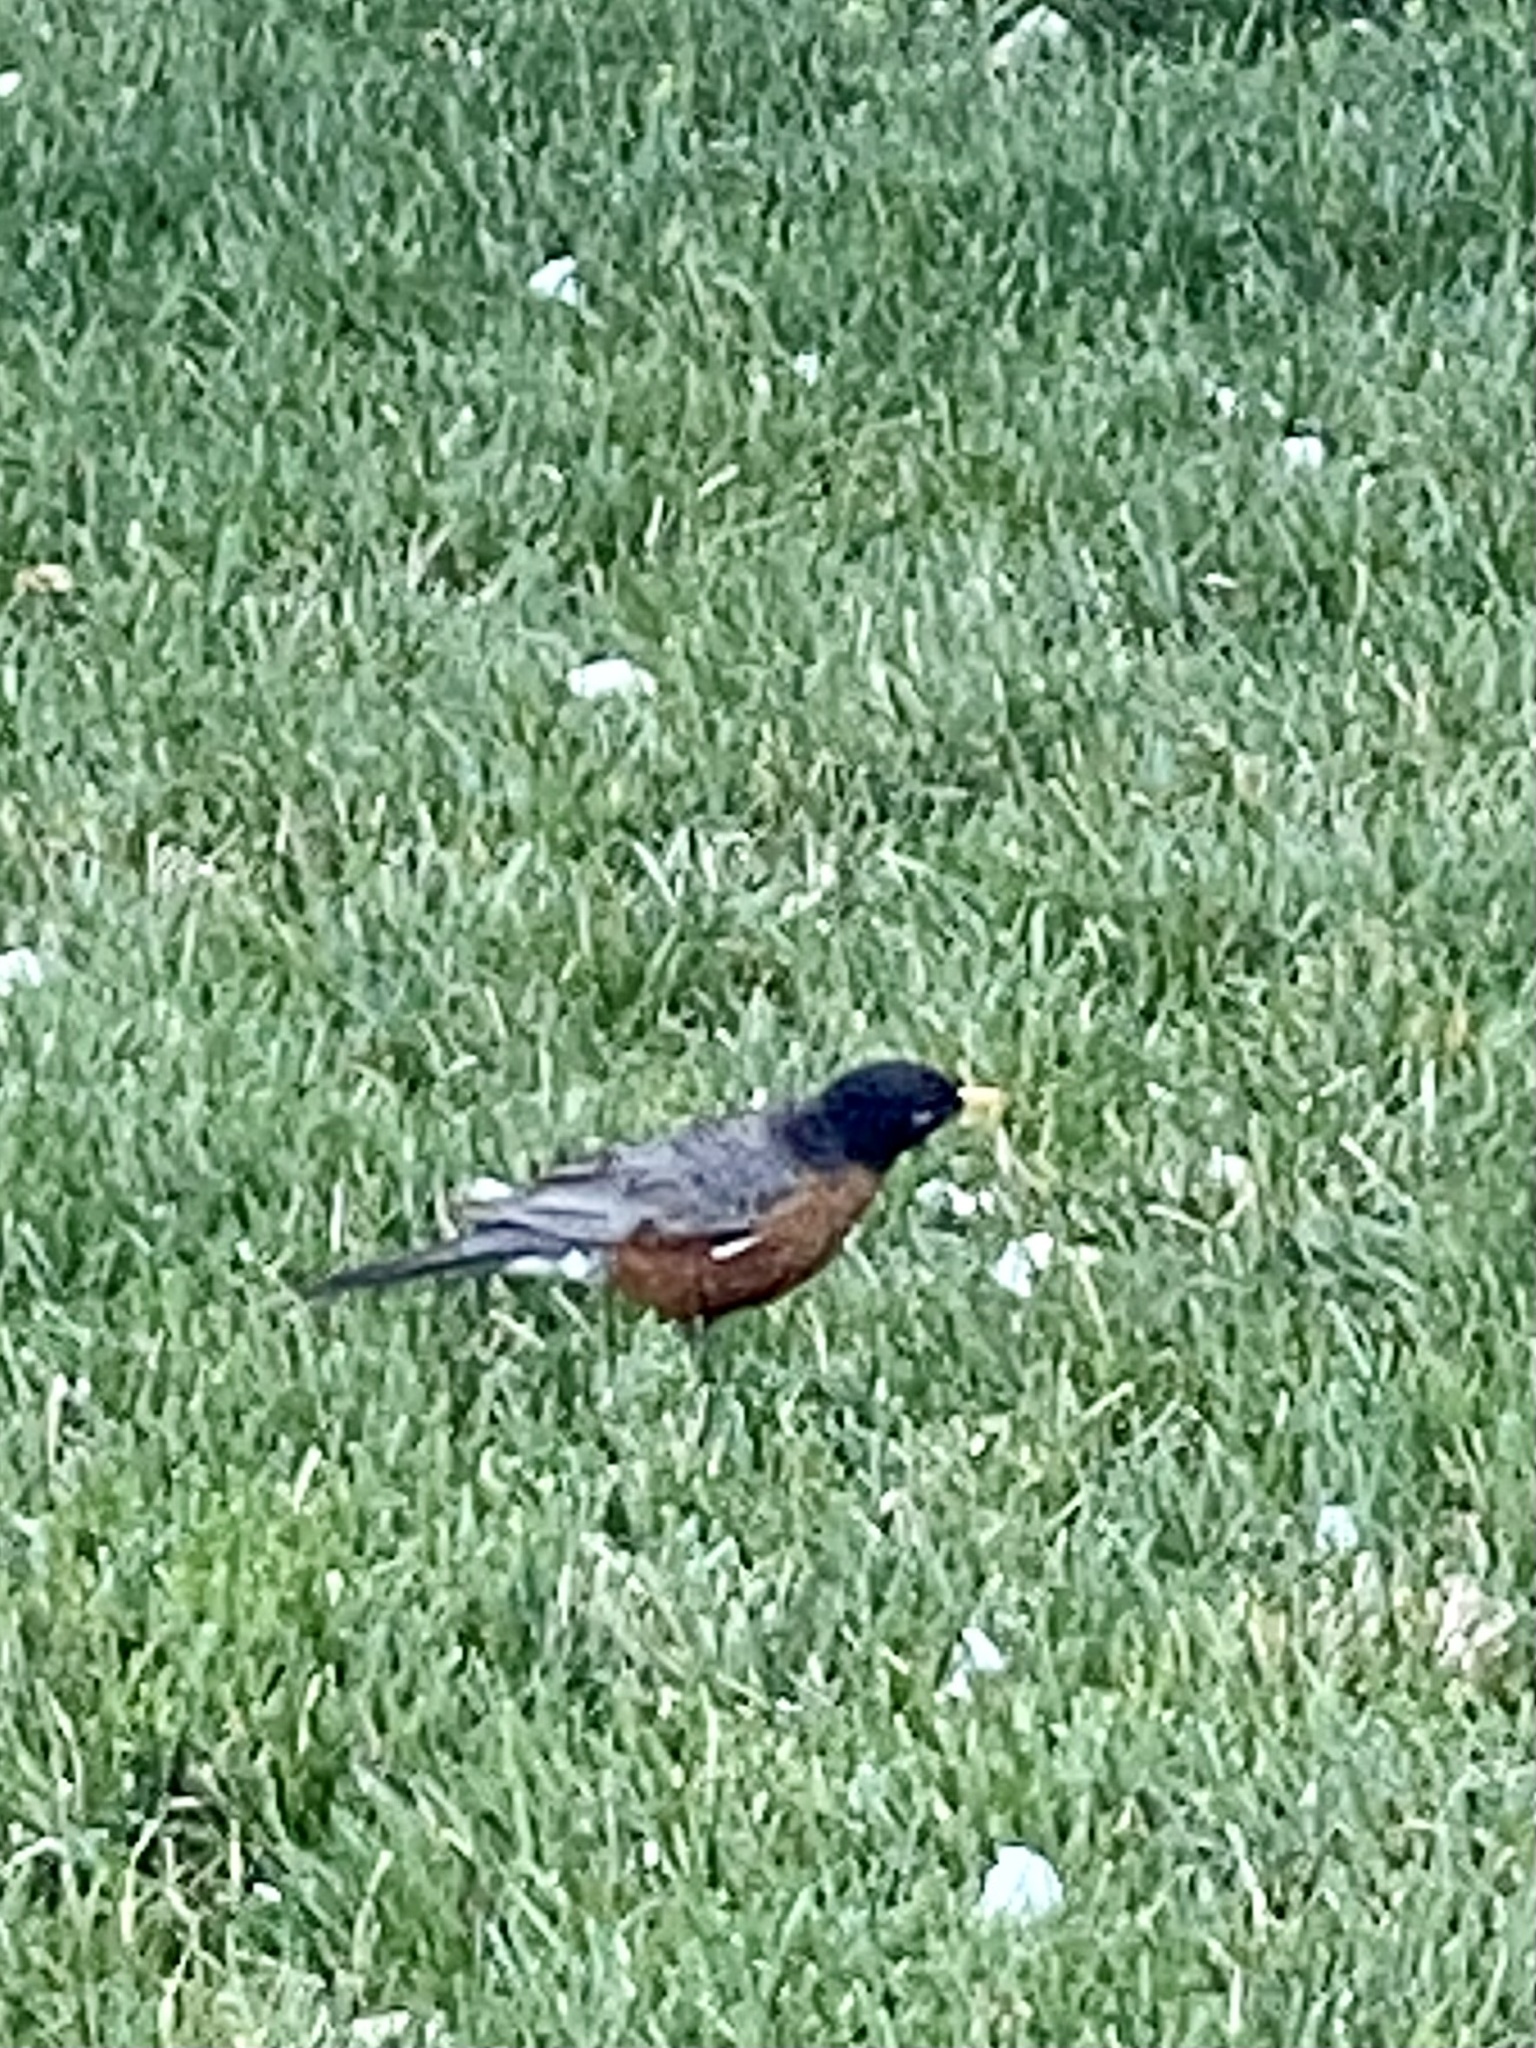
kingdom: Animalia
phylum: Chordata
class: Aves
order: Passeriformes
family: Turdidae
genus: Turdus
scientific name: Turdus migratorius
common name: American robin
